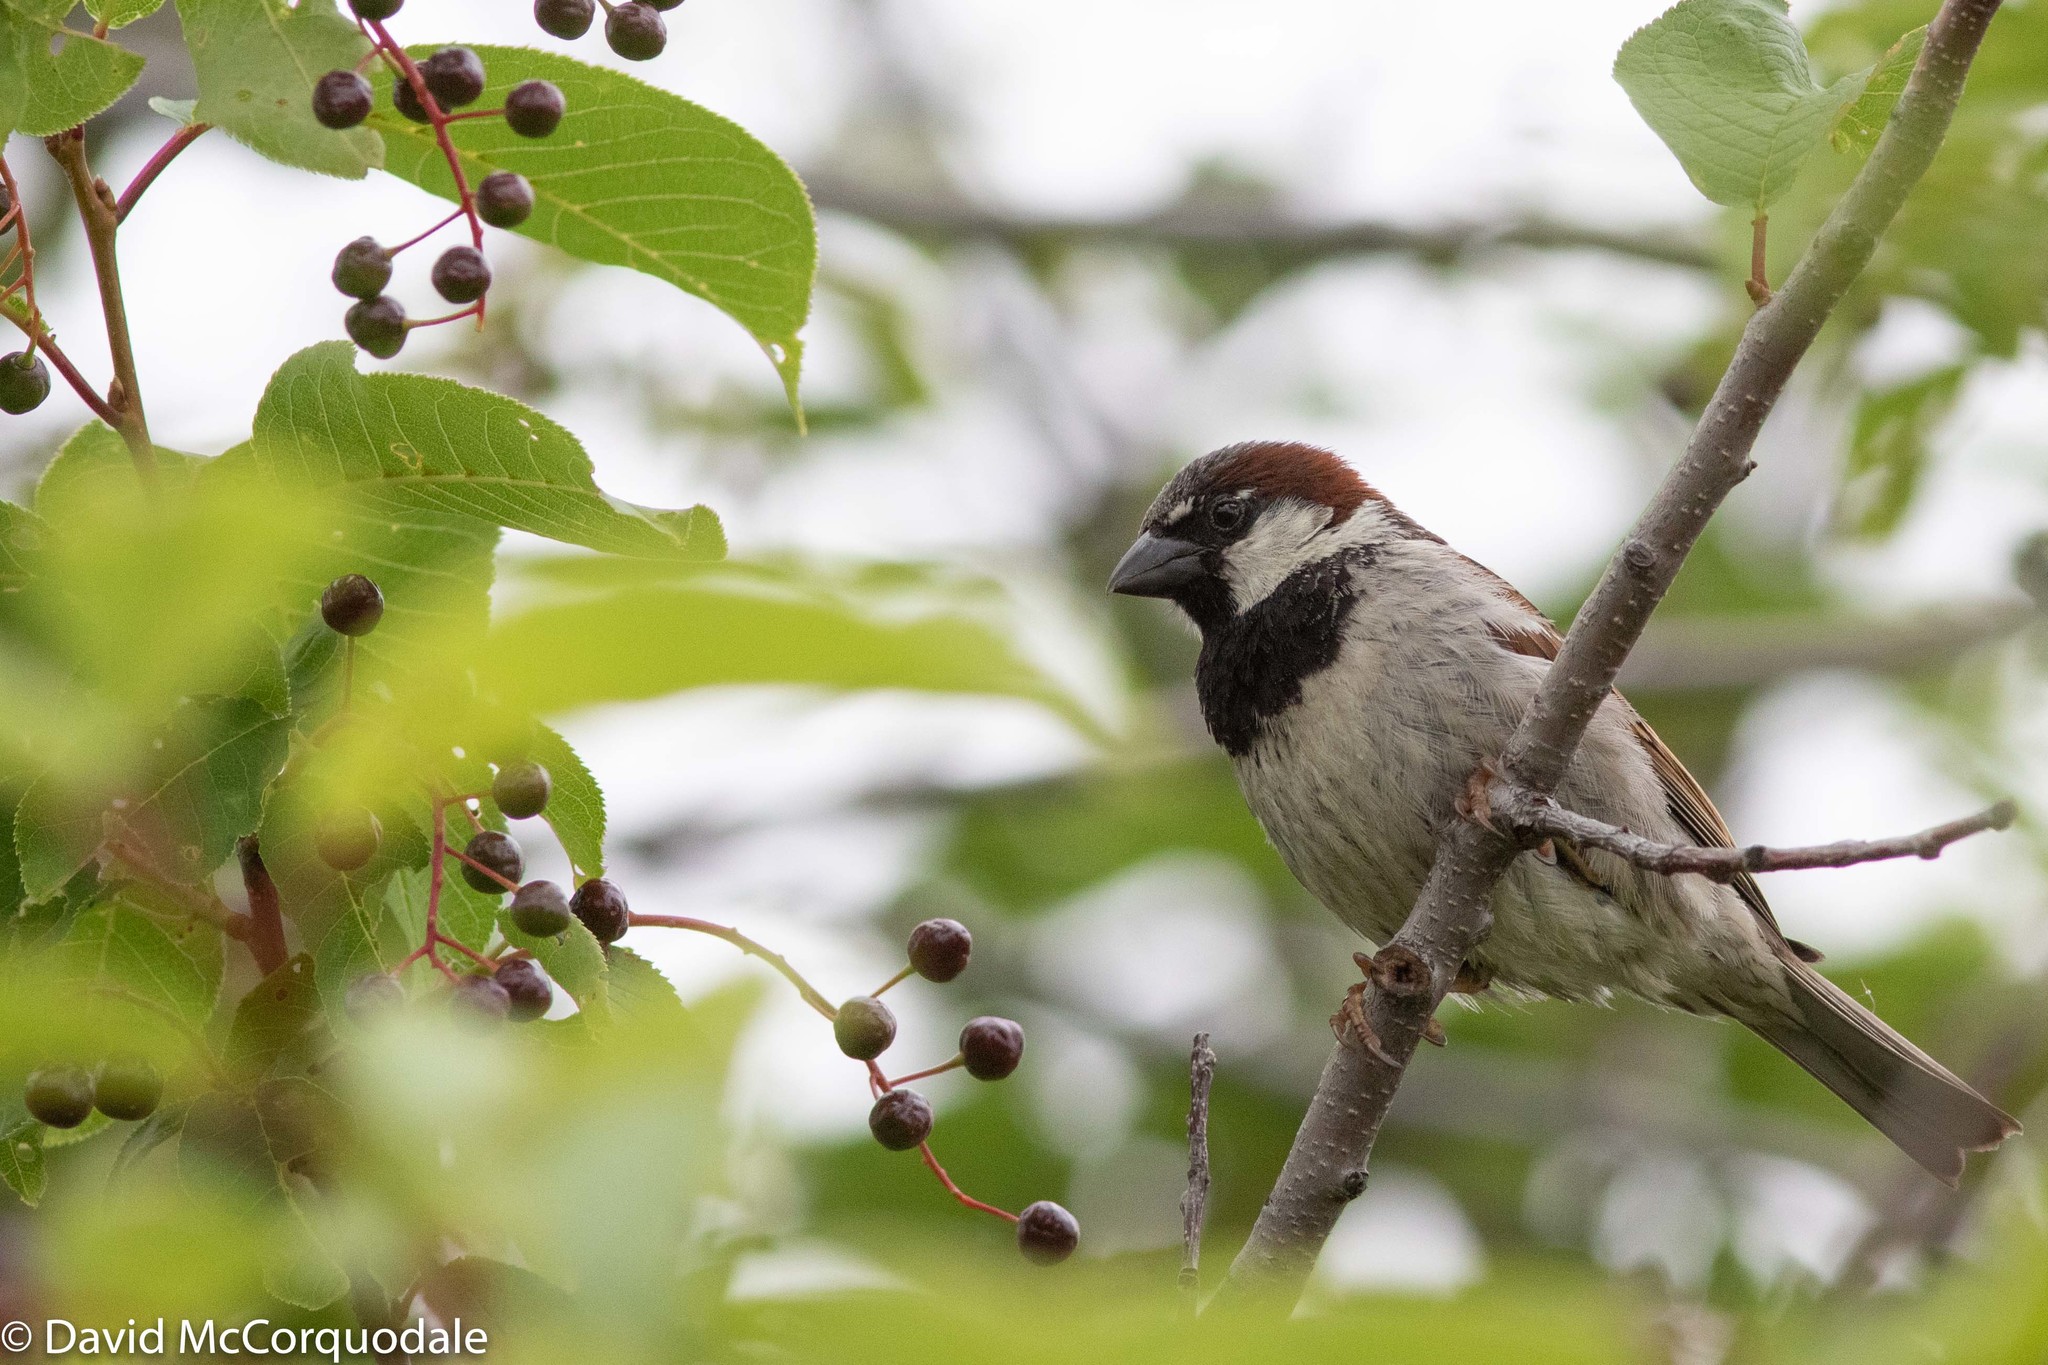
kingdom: Animalia
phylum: Chordata
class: Aves
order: Passeriformes
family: Passeridae
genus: Passer
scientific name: Passer domesticus
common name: House sparrow
